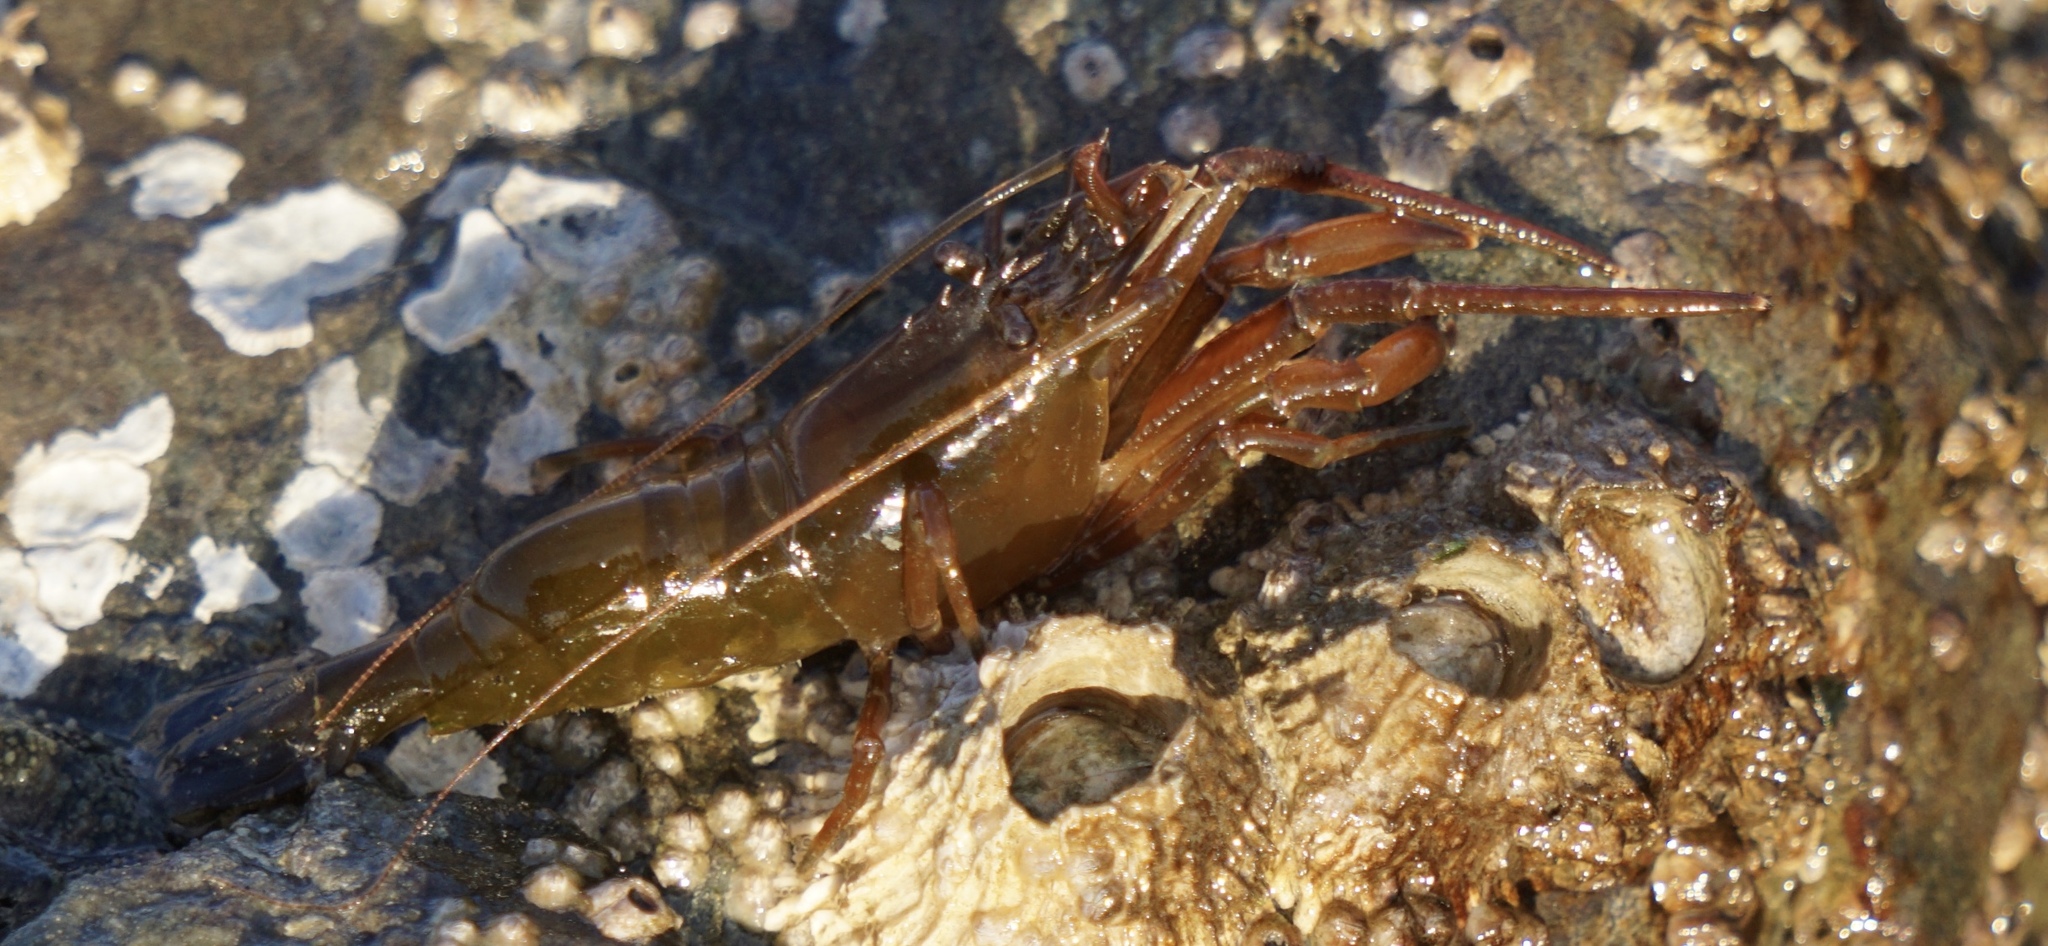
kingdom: Animalia
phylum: Arthropoda
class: Malacostraca
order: Decapoda
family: Thoridae
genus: Heptacarpus
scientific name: Heptacarpus brevirostris
